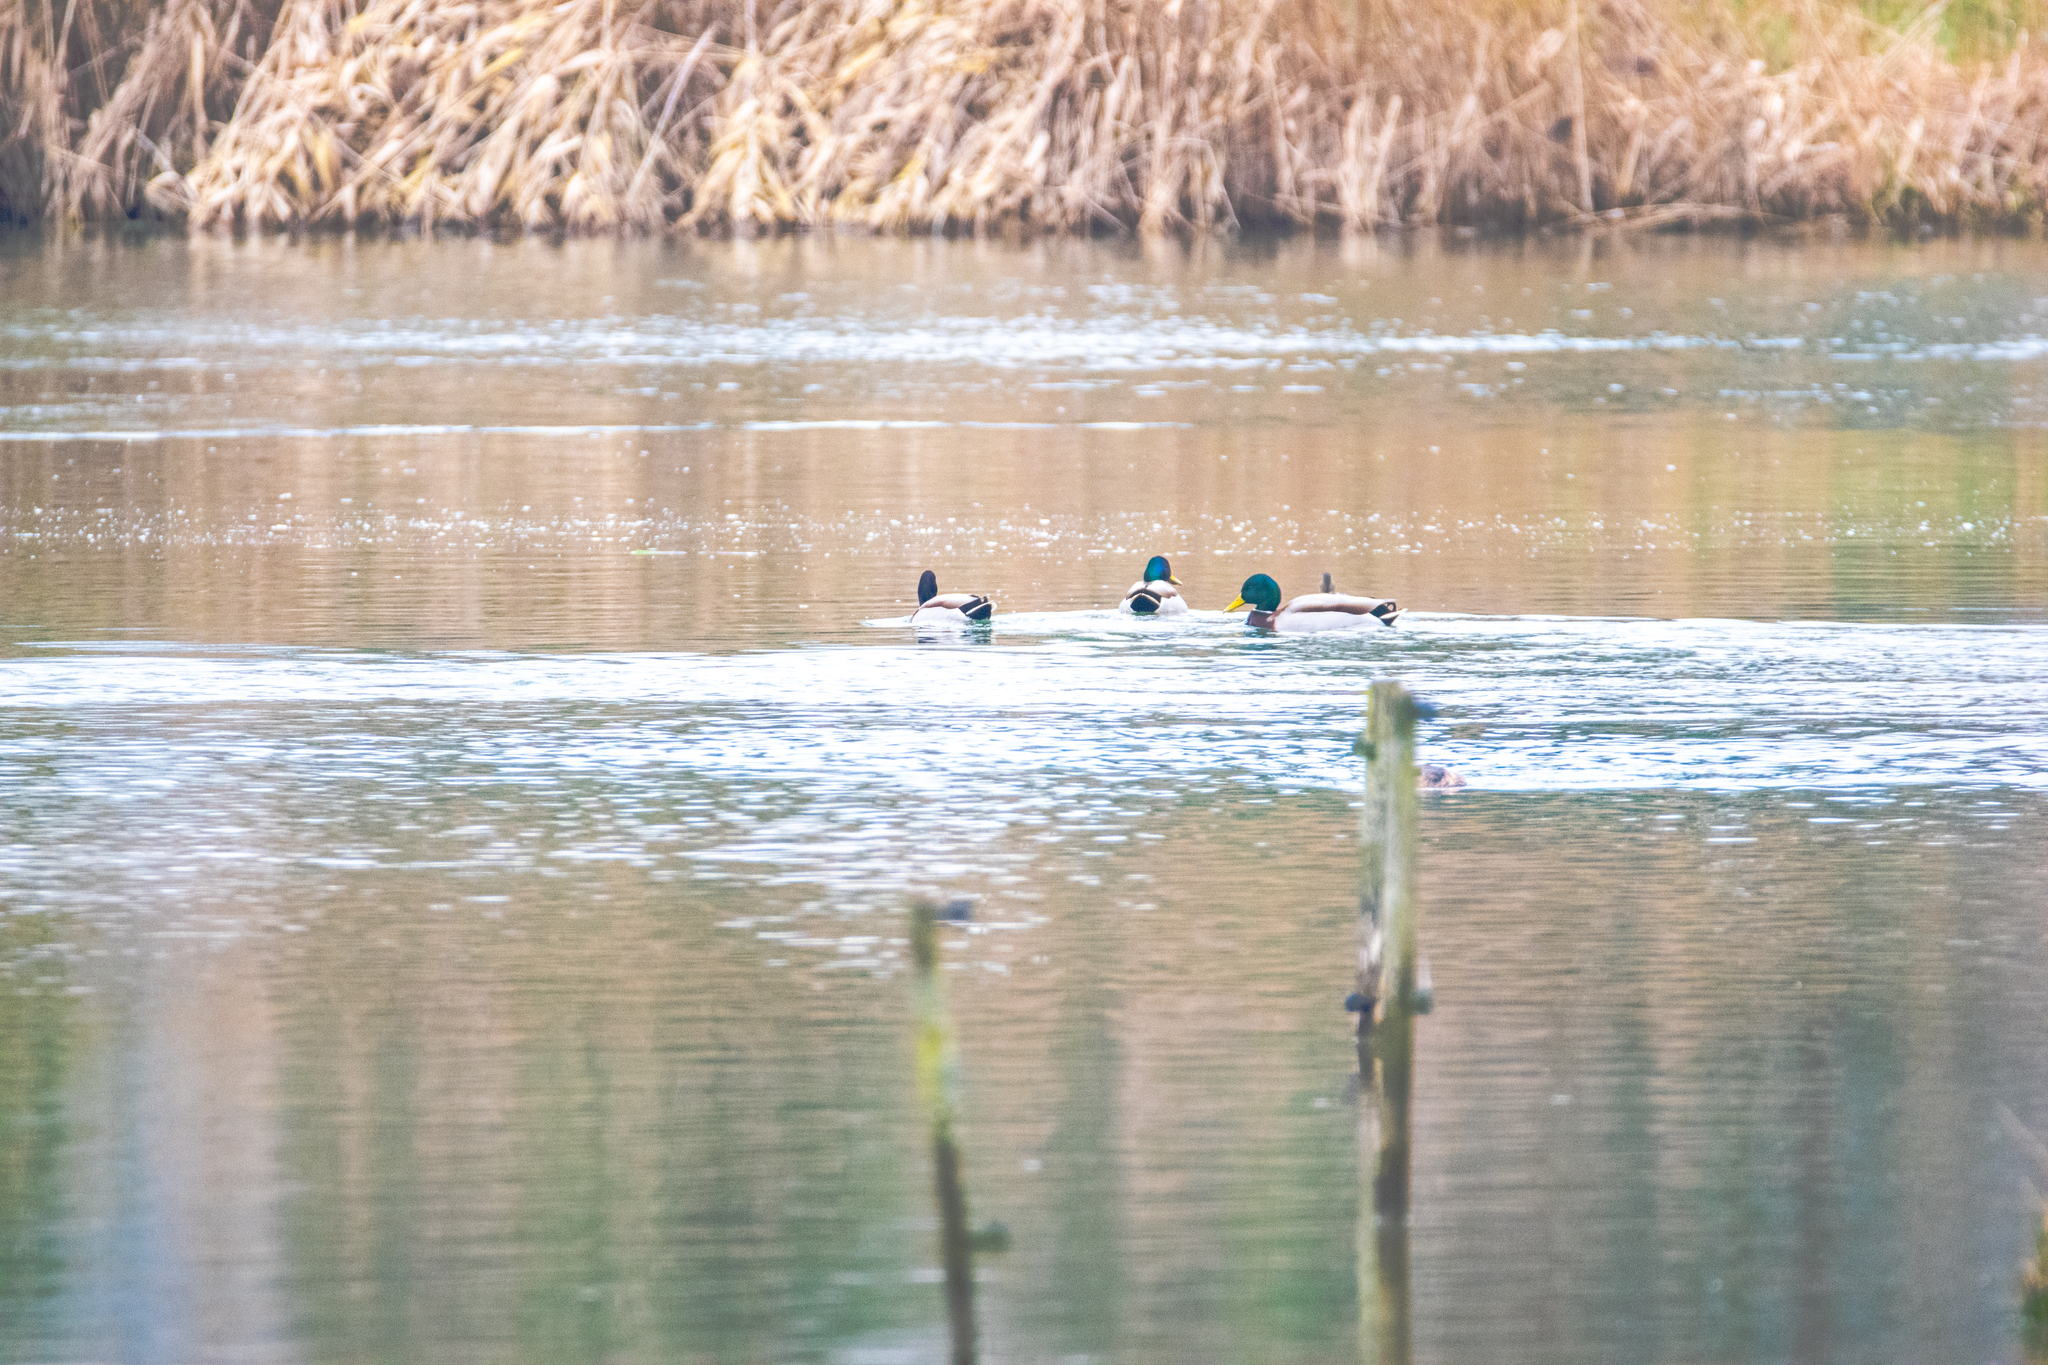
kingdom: Animalia
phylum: Chordata
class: Aves
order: Anseriformes
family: Anatidae
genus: Anas
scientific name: Anas platyrhynchos
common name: Mallard
